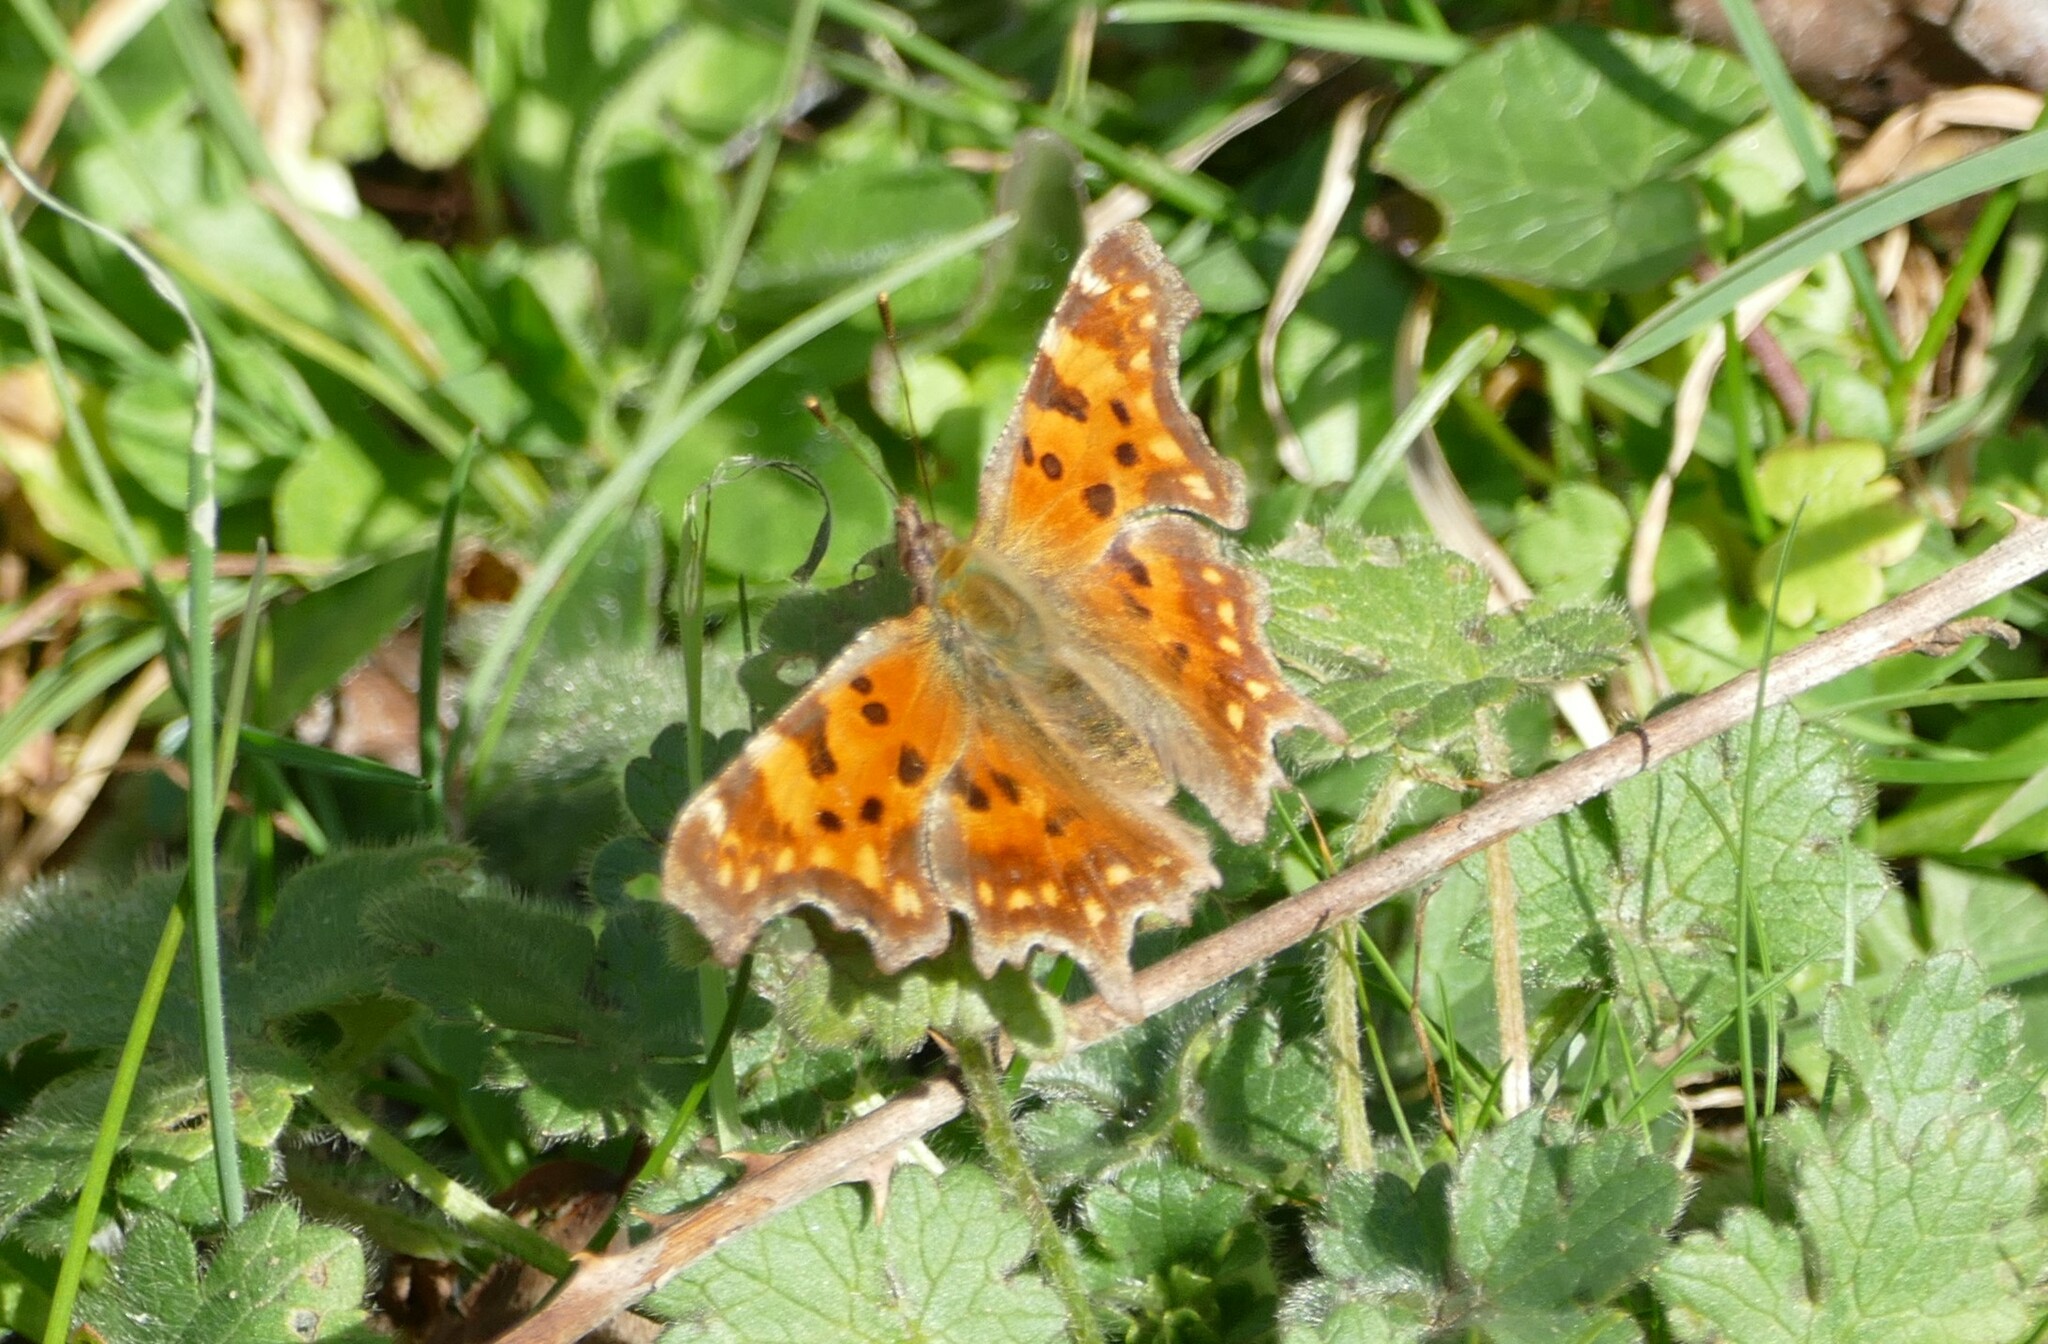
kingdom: Animalia
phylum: Arthropoda
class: Insecta
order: Lepidoptera
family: Nymphalidae
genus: Polygonia
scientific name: Polygonia c-album
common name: Comma
